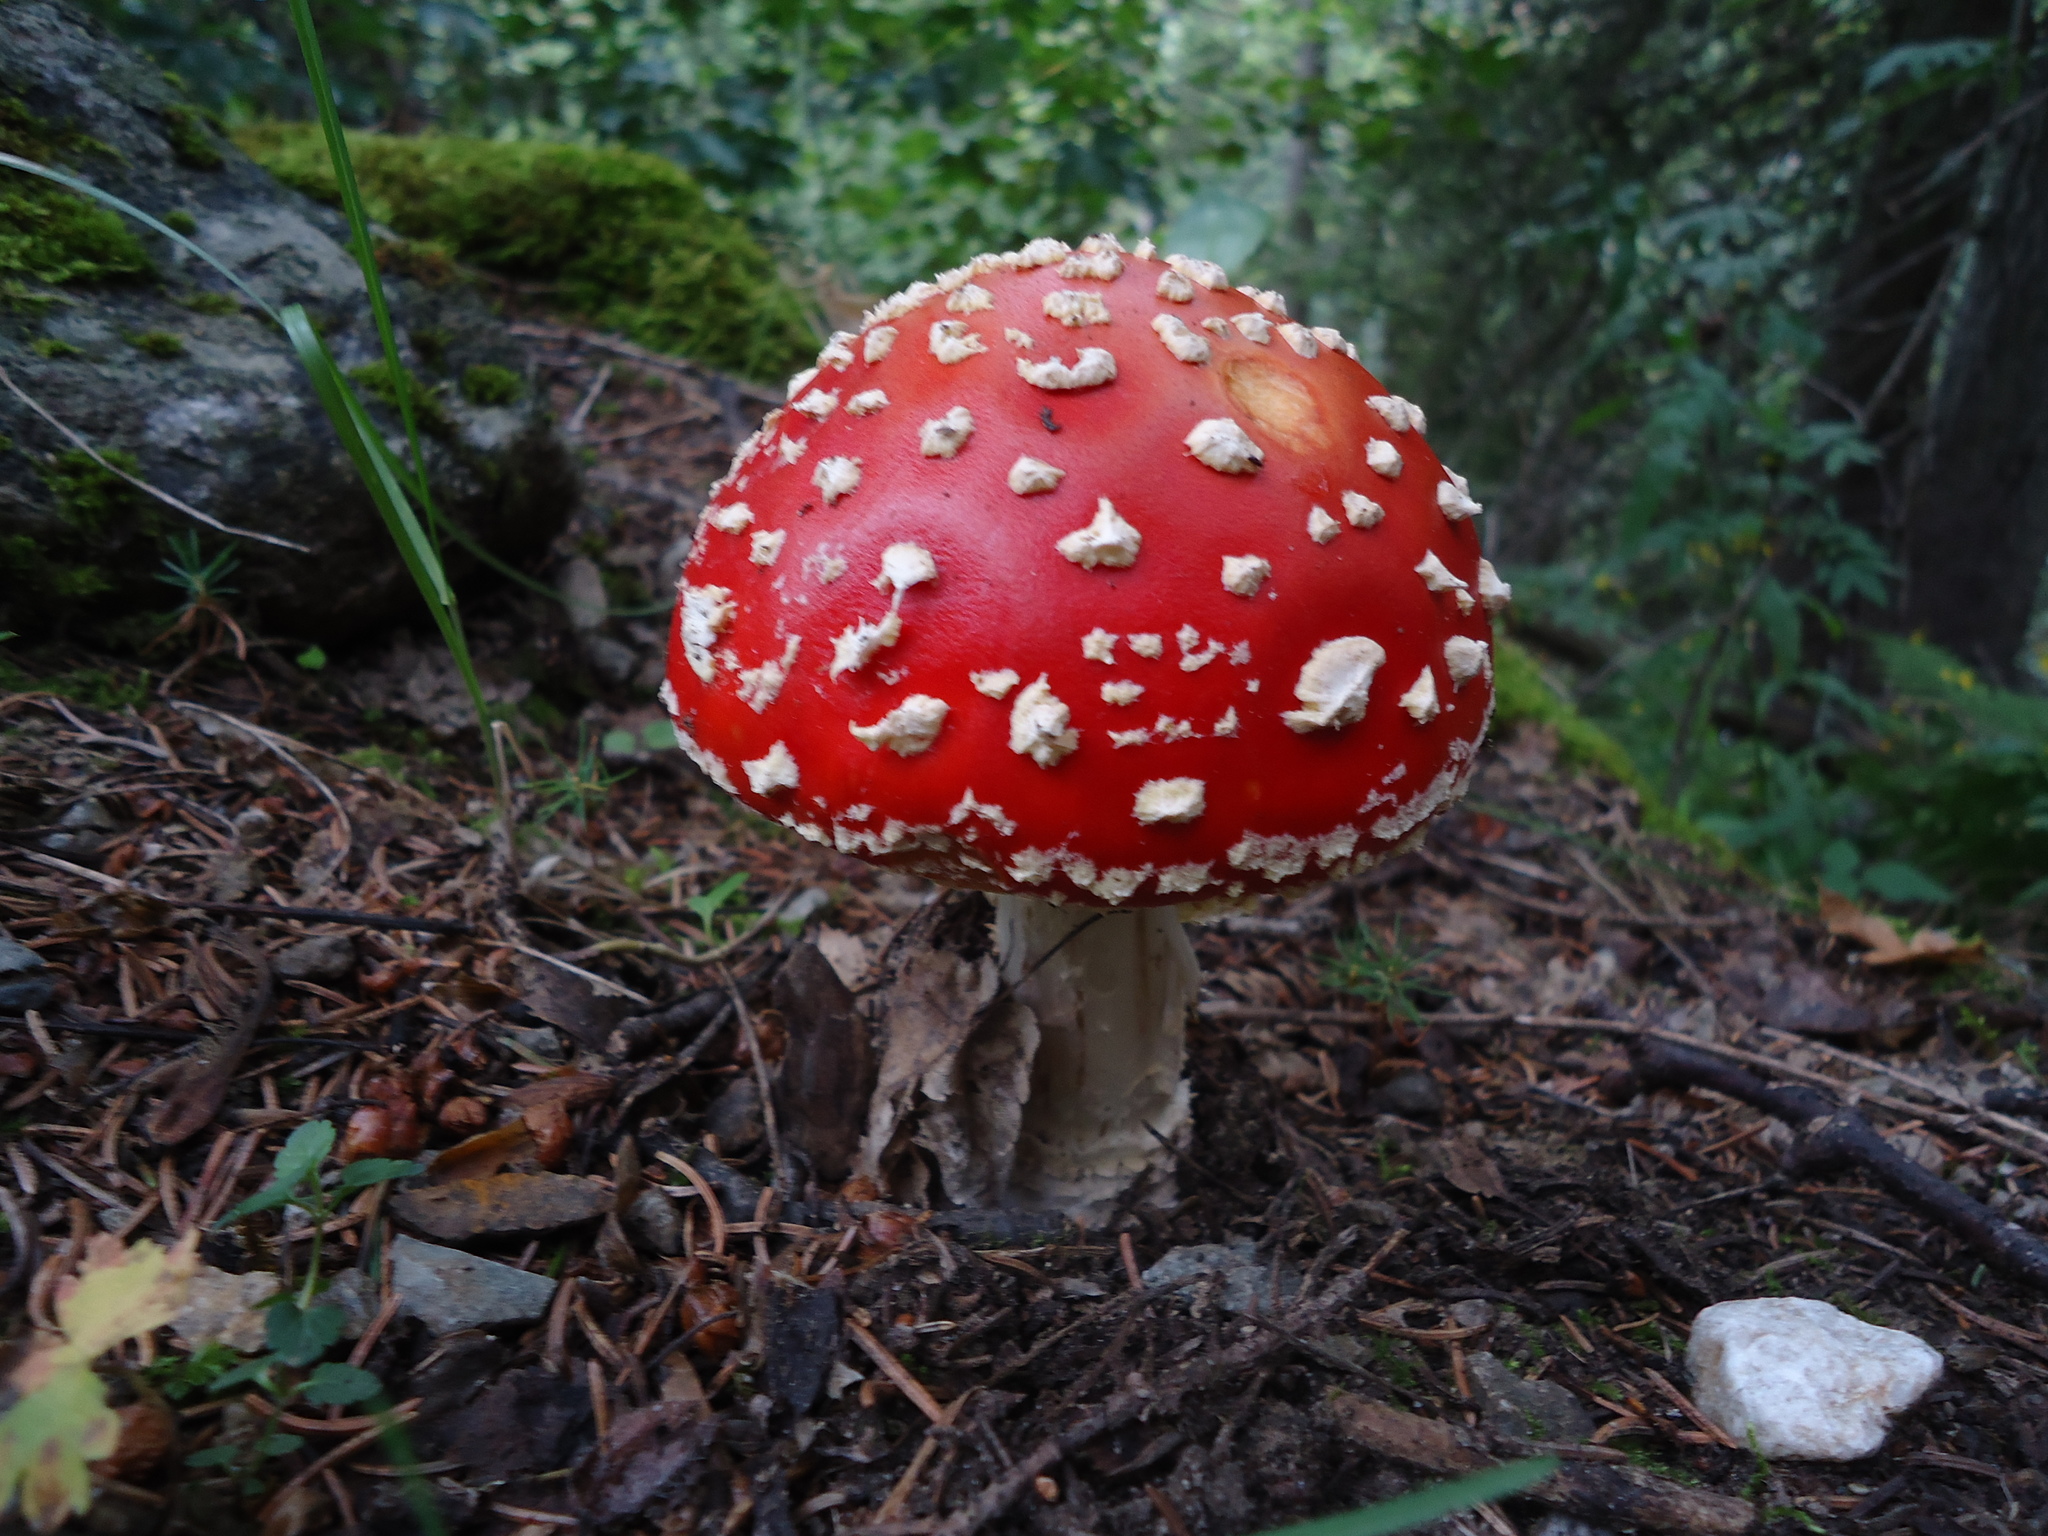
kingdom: Fungi
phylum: Basidiomycota
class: Agaricomycetes
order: Agaricales
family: Amanitaceae
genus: Amanita
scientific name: Amanita muscaria
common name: Fly agaric
